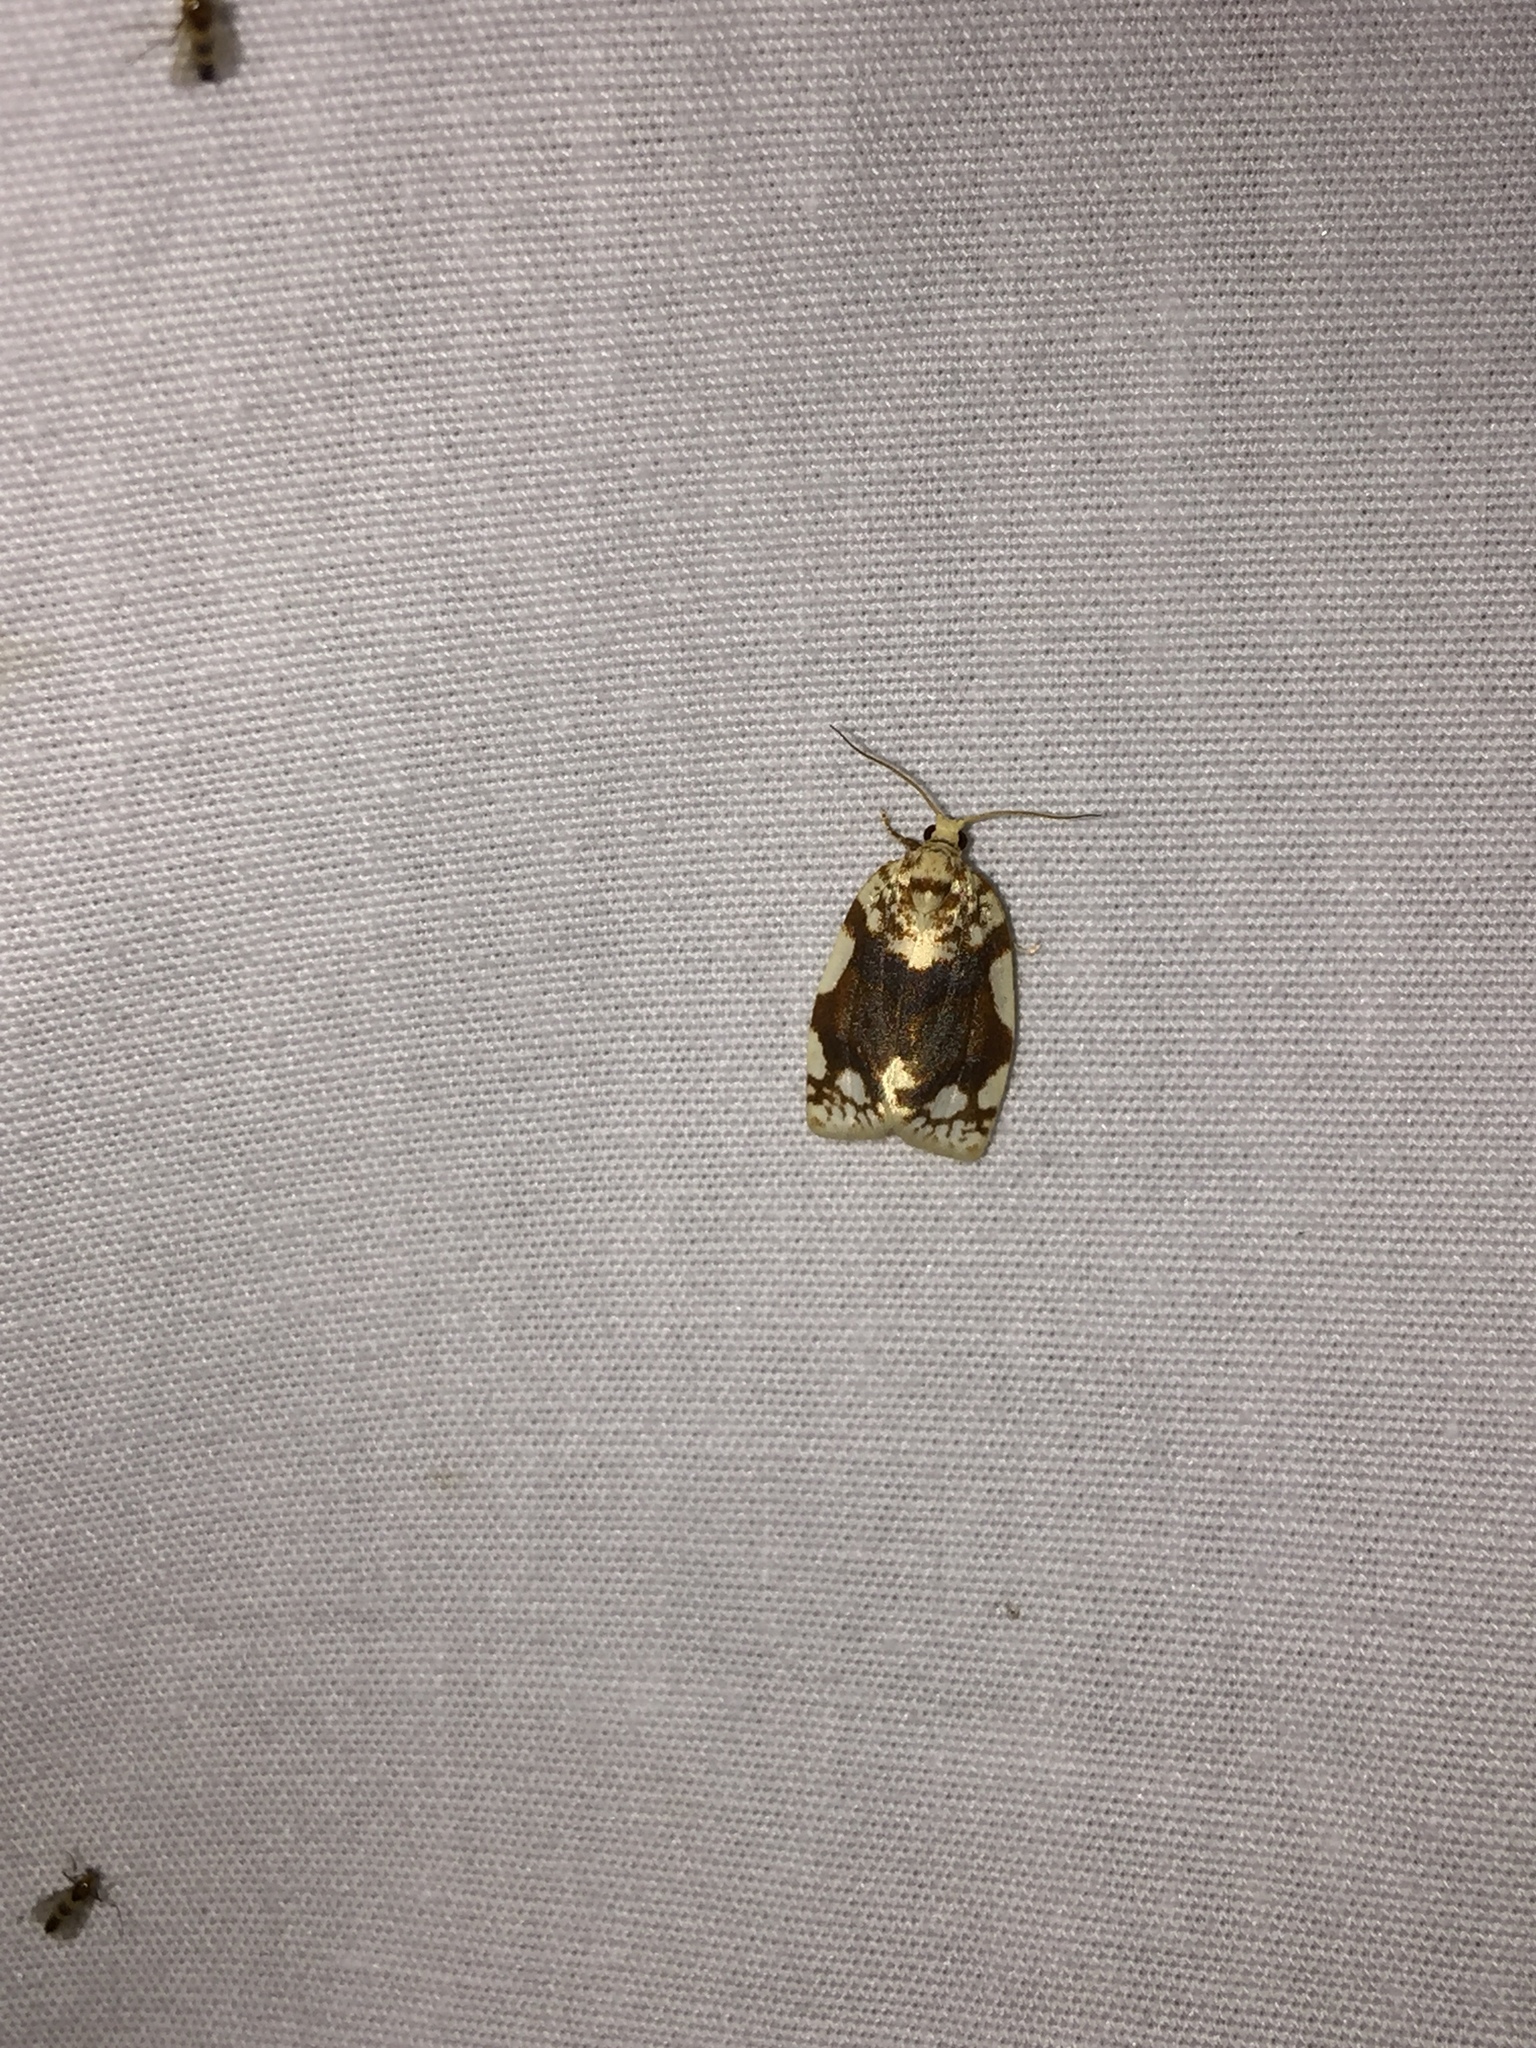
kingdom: Animalia
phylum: Arthropoda
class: Insecta
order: Lepidoptera
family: Tortricidae
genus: Argyrotaenia
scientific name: Argyrotaenia alisellana
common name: White-spotted leafroller moth
